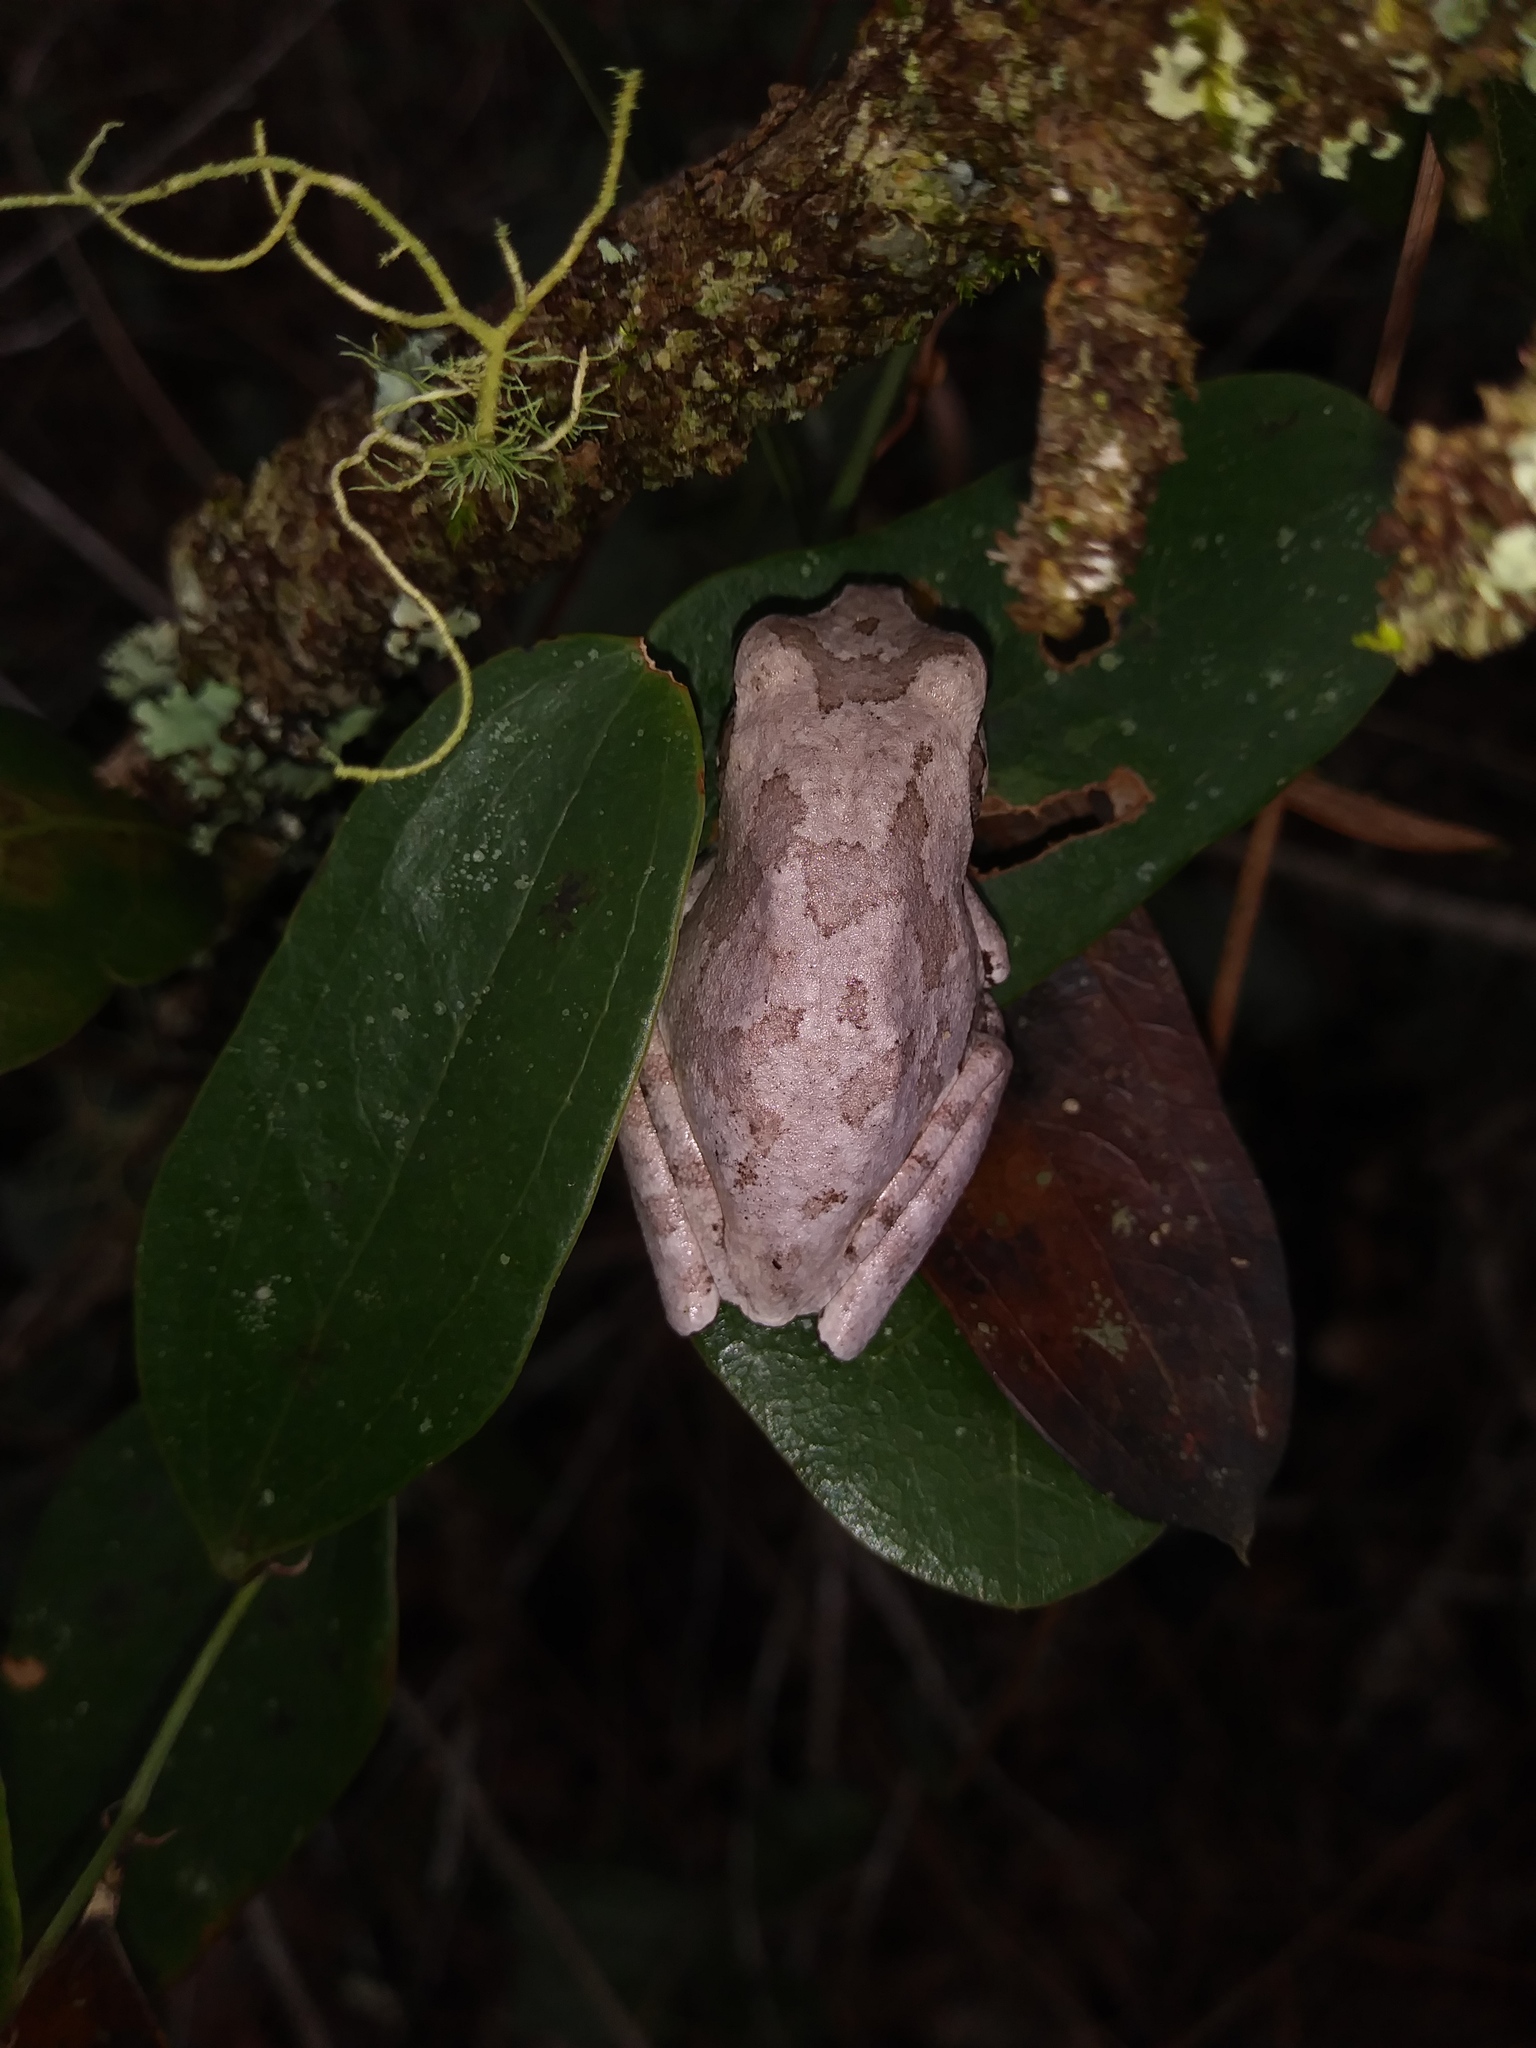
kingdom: Animalia
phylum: Chordata
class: Amphibia
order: Anura
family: Hylidae
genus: Hyla
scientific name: Hyla femoralis
